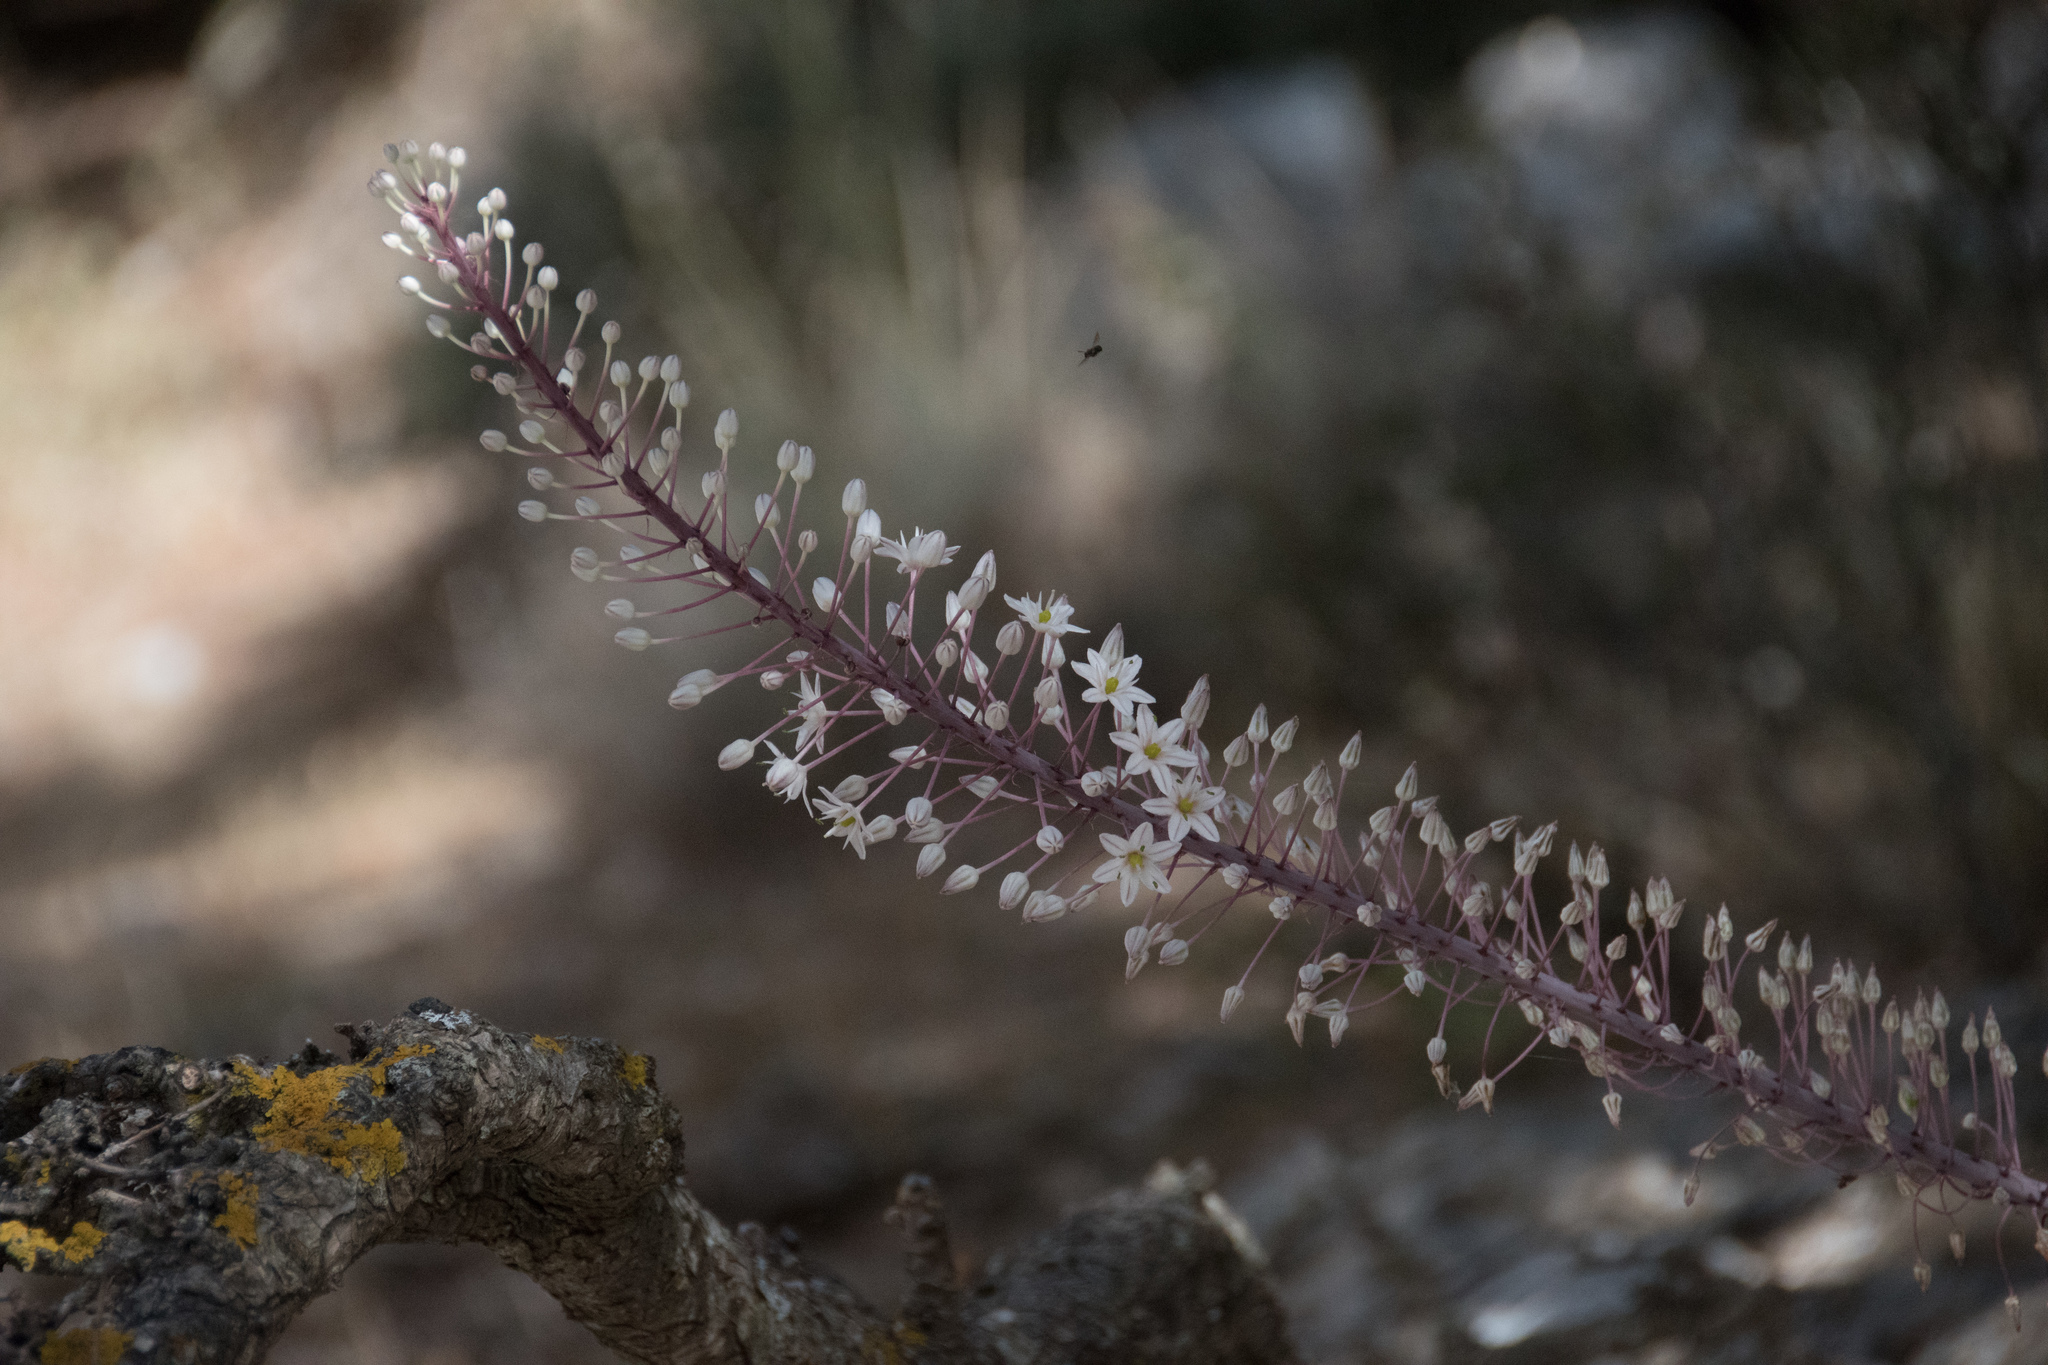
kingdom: Plantae
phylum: Tracheophyta
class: Liliopsida
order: Asparagales
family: Asparagaceae
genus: Drimia
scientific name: Drimia numidica
